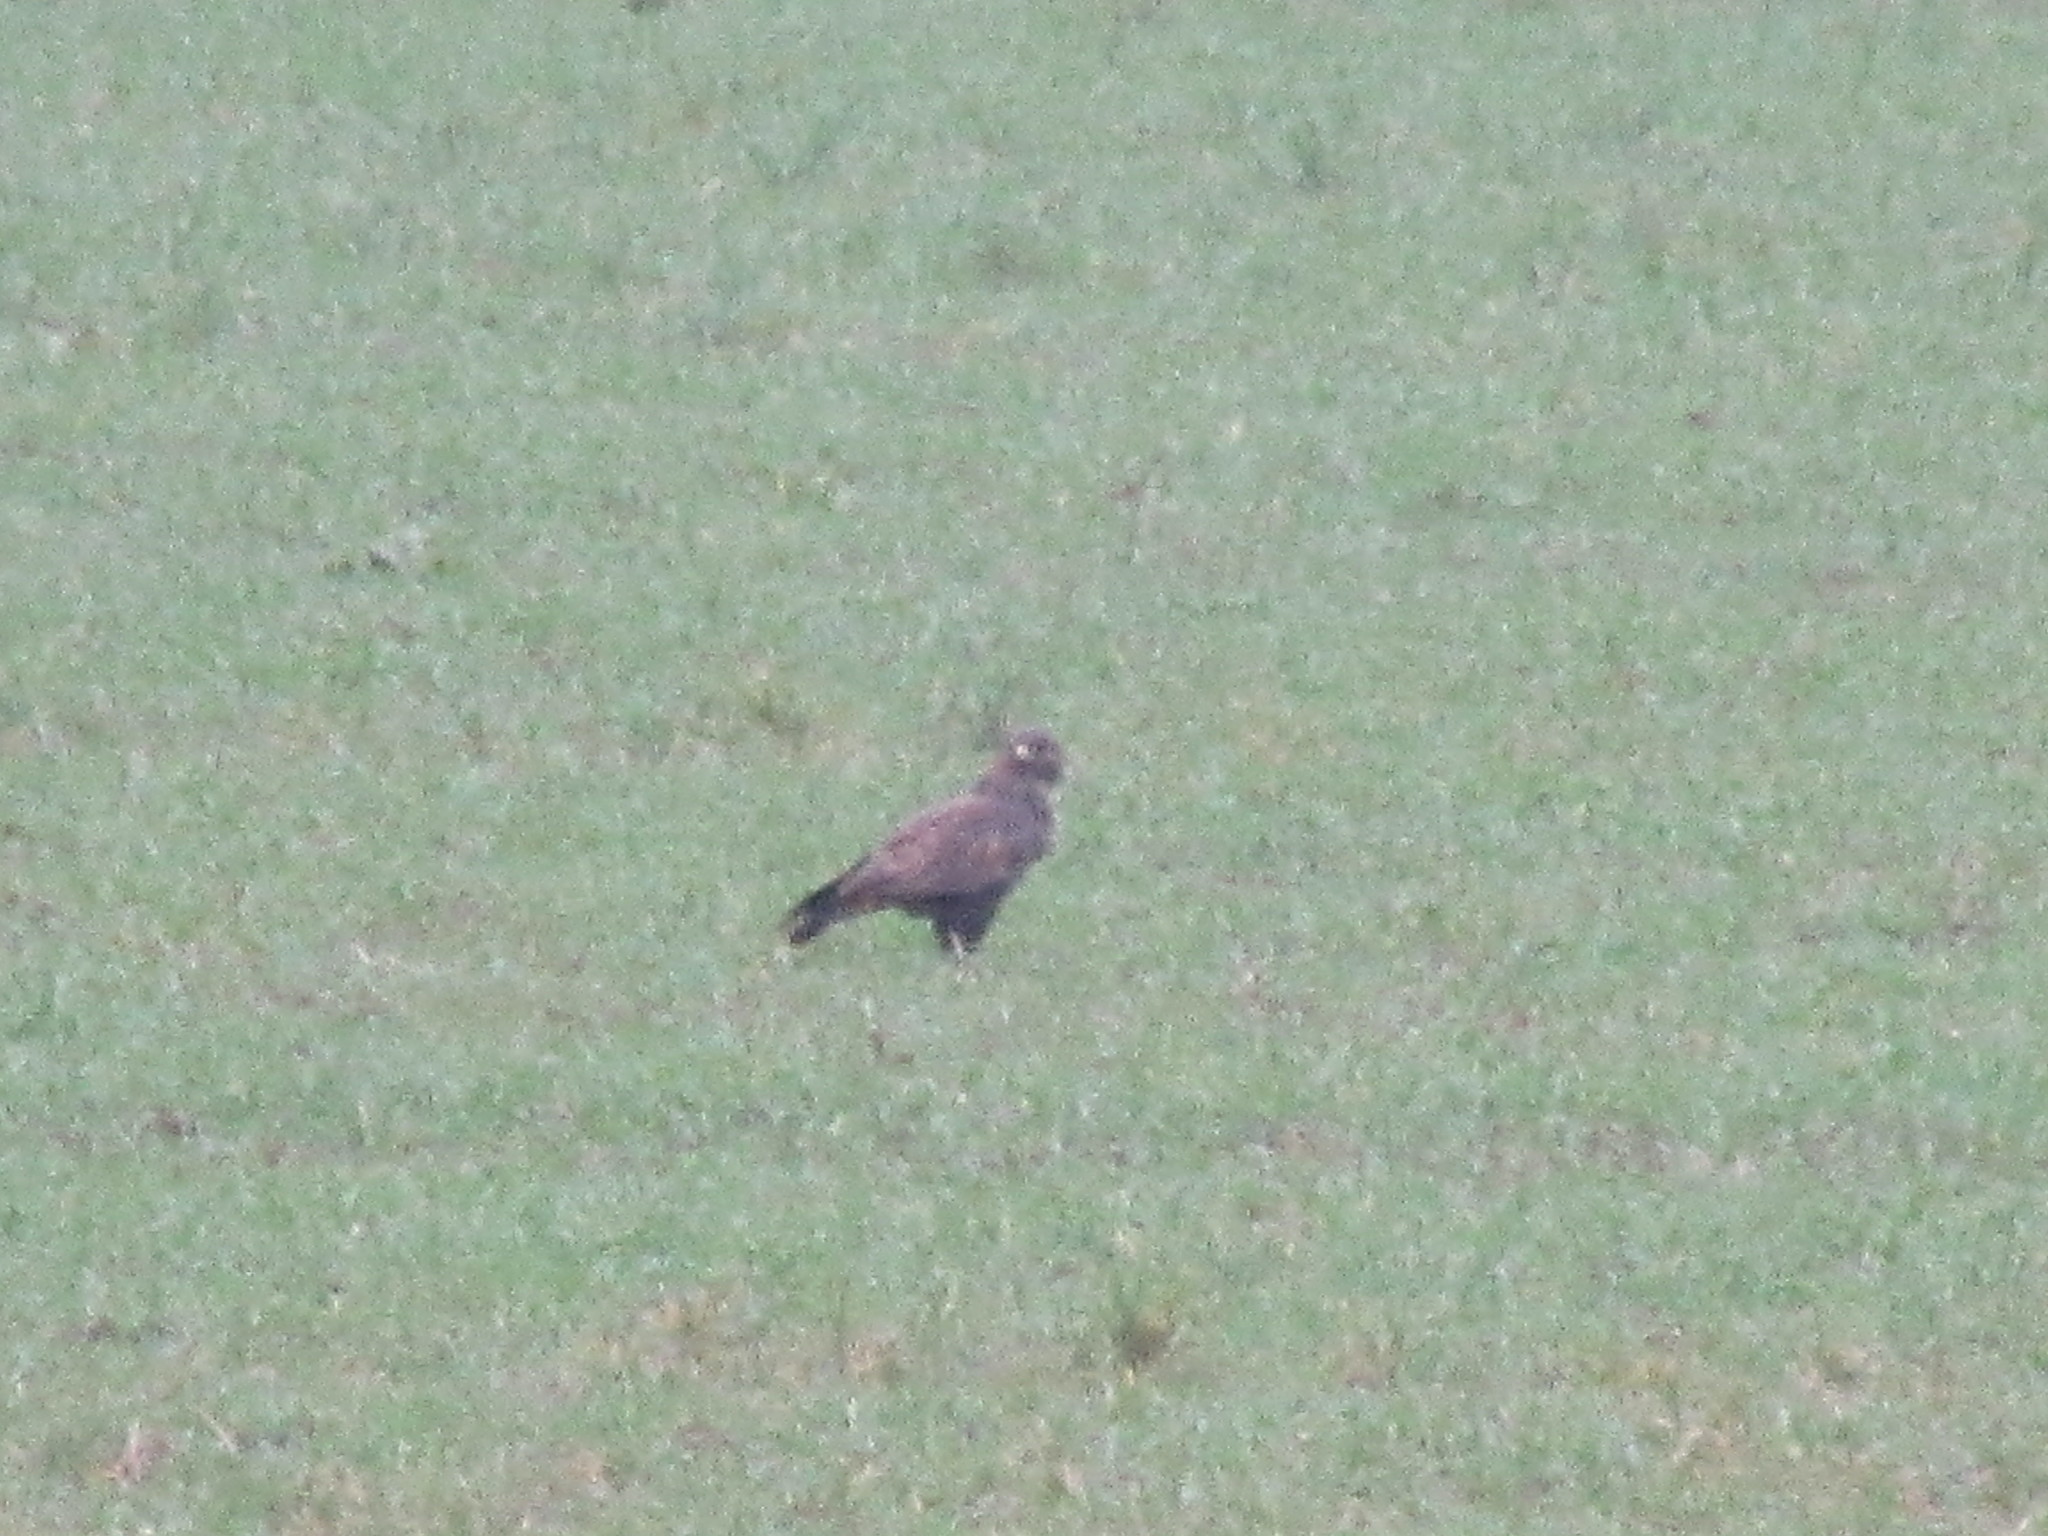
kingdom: Animalia
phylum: Chordata
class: Aves
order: Accipitriformes
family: Accipitridae
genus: Buteo
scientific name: Buteo buteo
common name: Common buzzard
